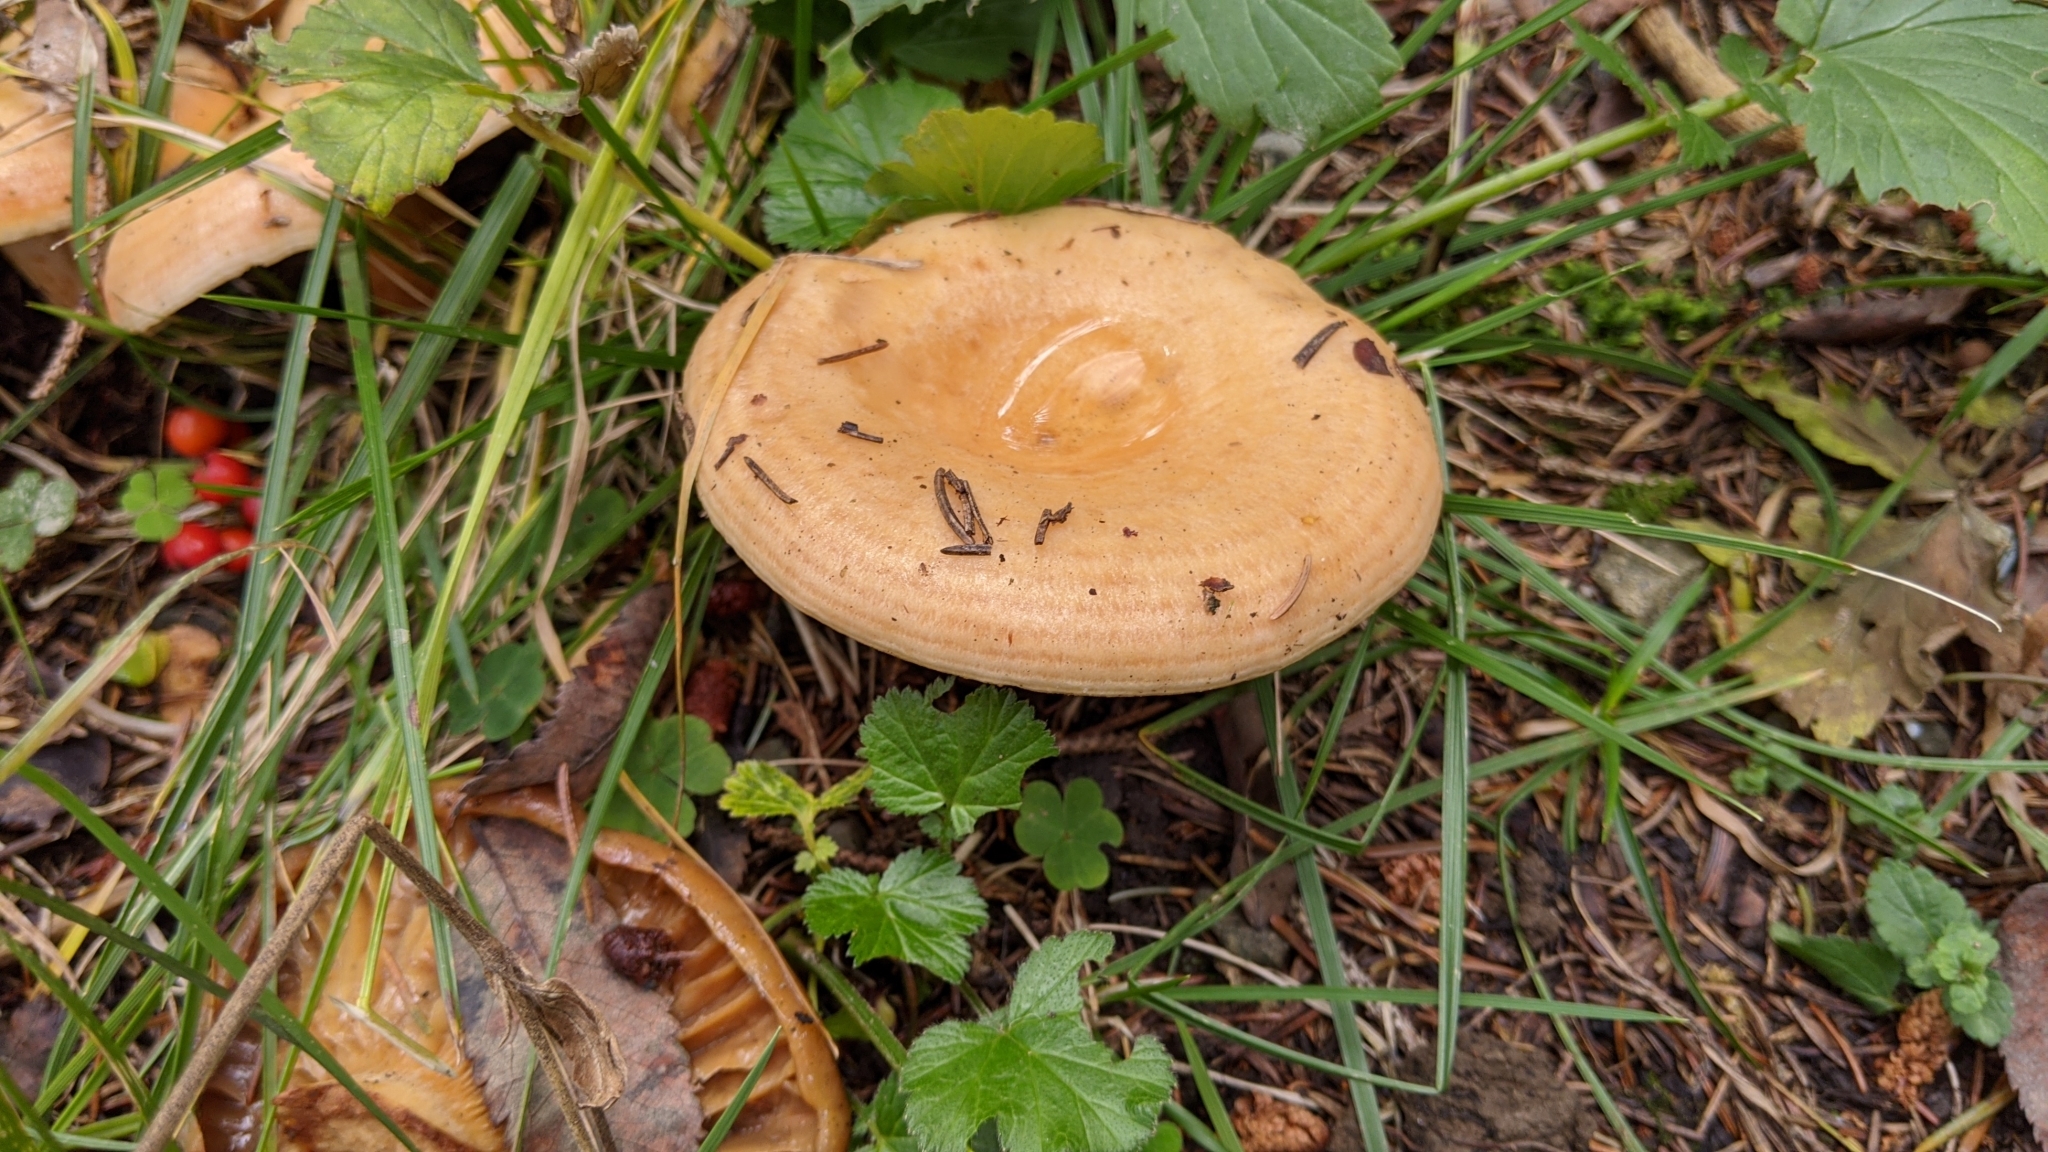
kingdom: Fungi
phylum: Basidiomycota
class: Agaricomycetes
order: Russulales
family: Russulaceae
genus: Lactarius
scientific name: Lactarius deliciosus
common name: Saffron milk-cap
